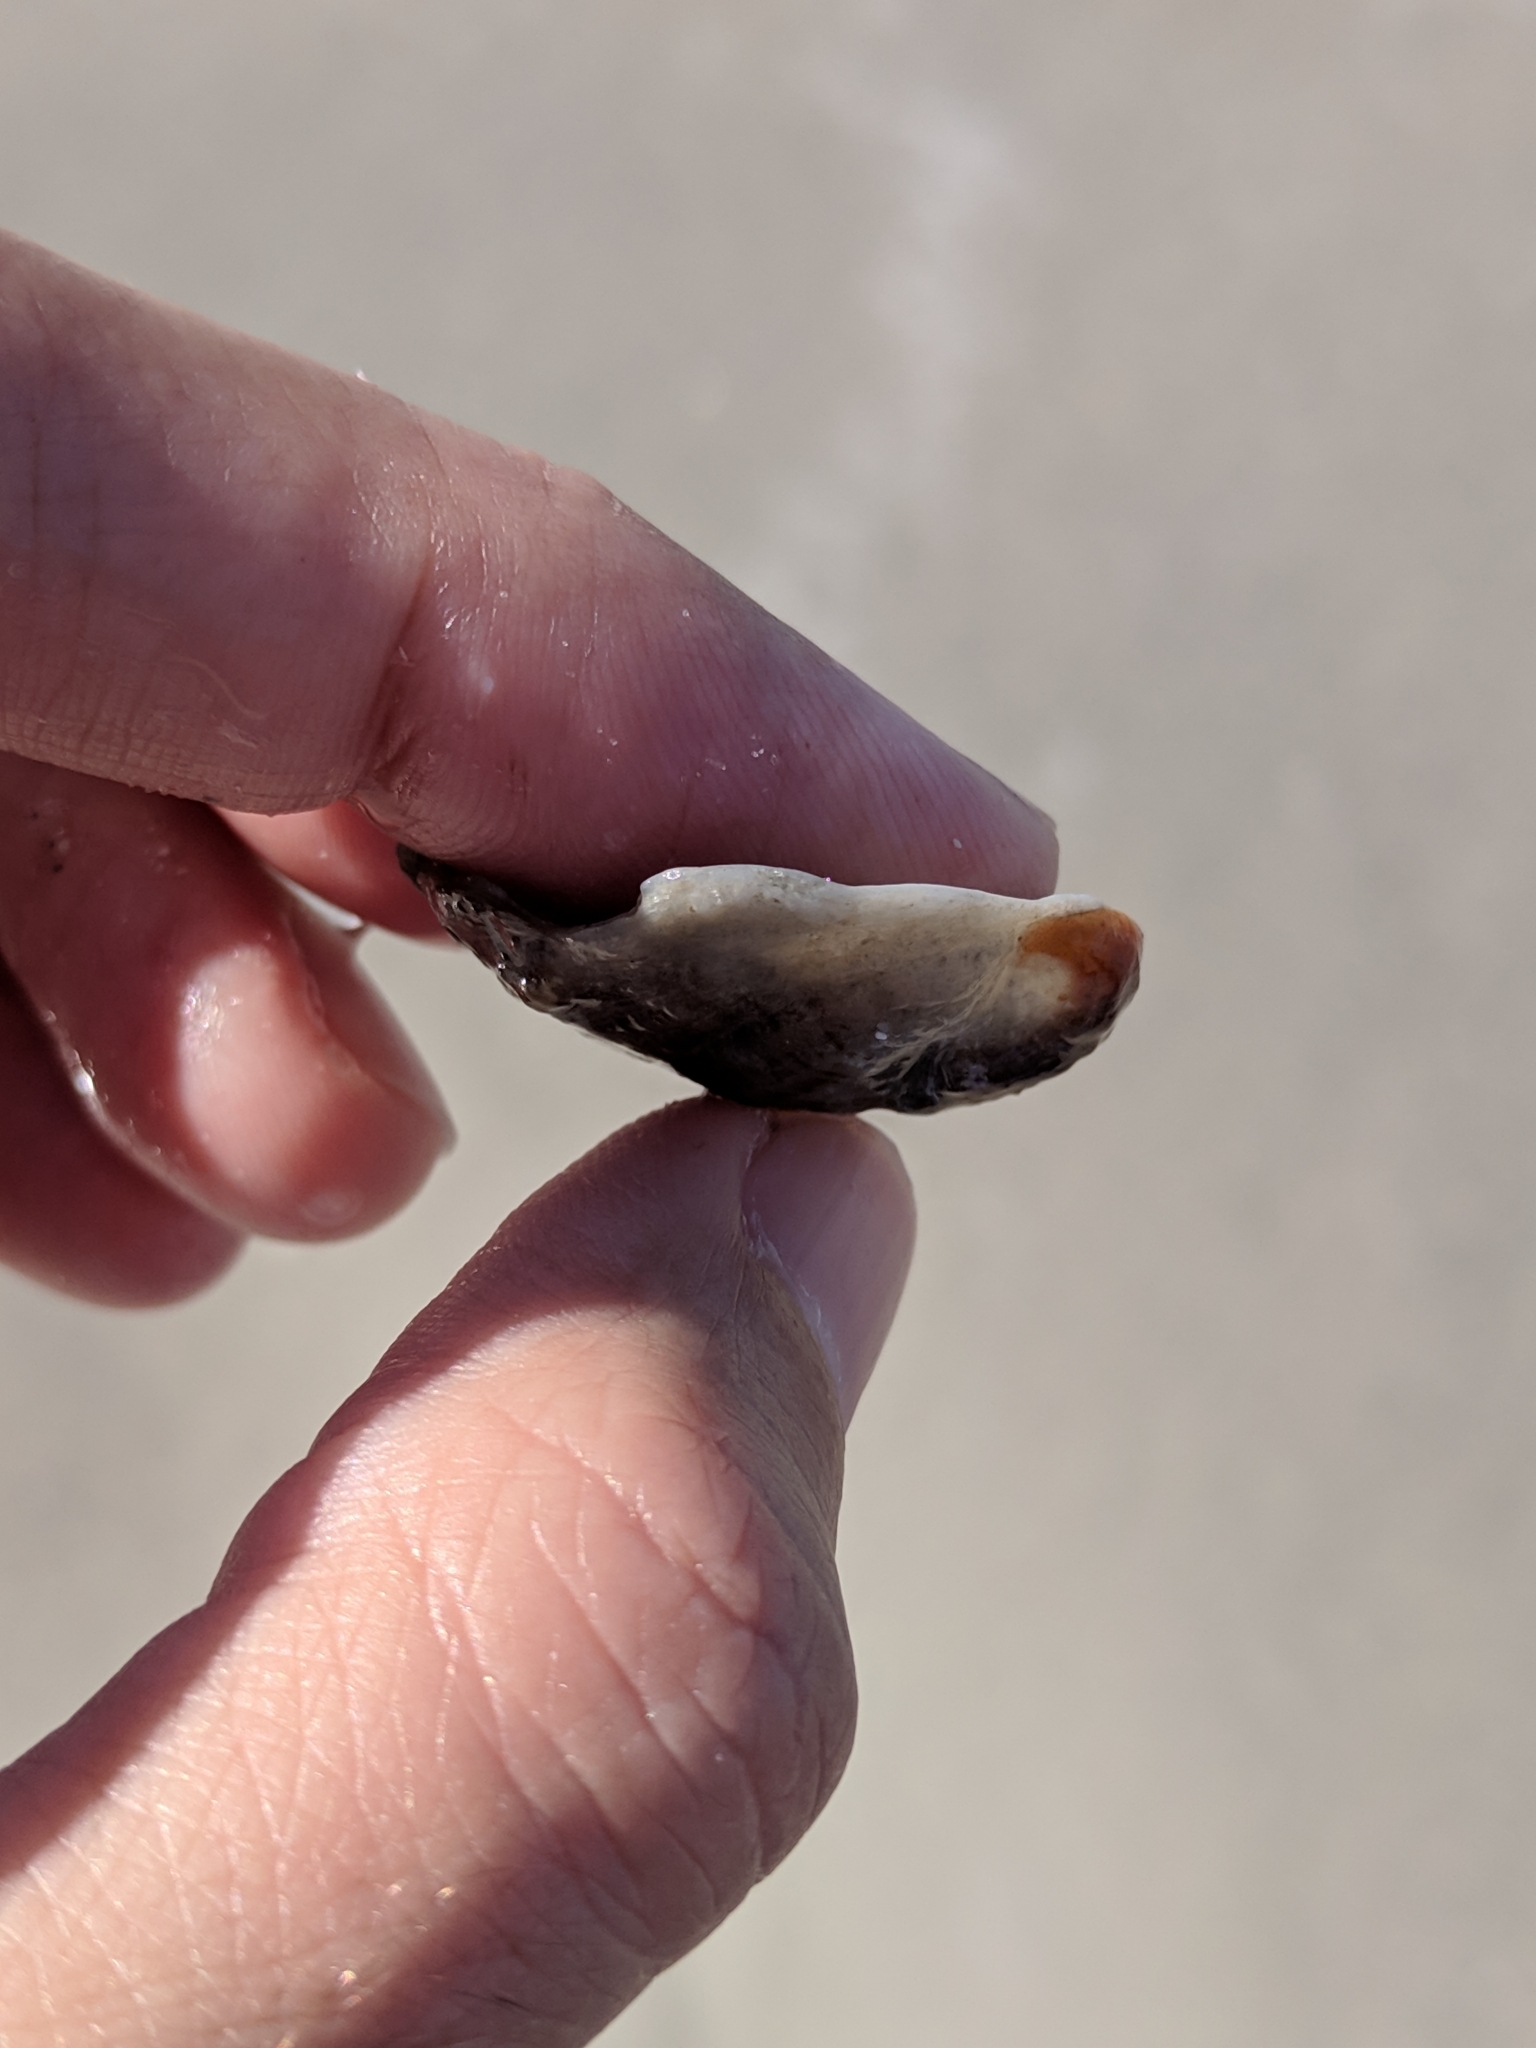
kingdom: Animalia
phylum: Mollusca
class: Gastropoda
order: Littorinimorpha
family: Calyptraeidae
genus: Bostrycapulus
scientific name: Bostrycapulus aculeatus
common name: Spiny slippersnail
